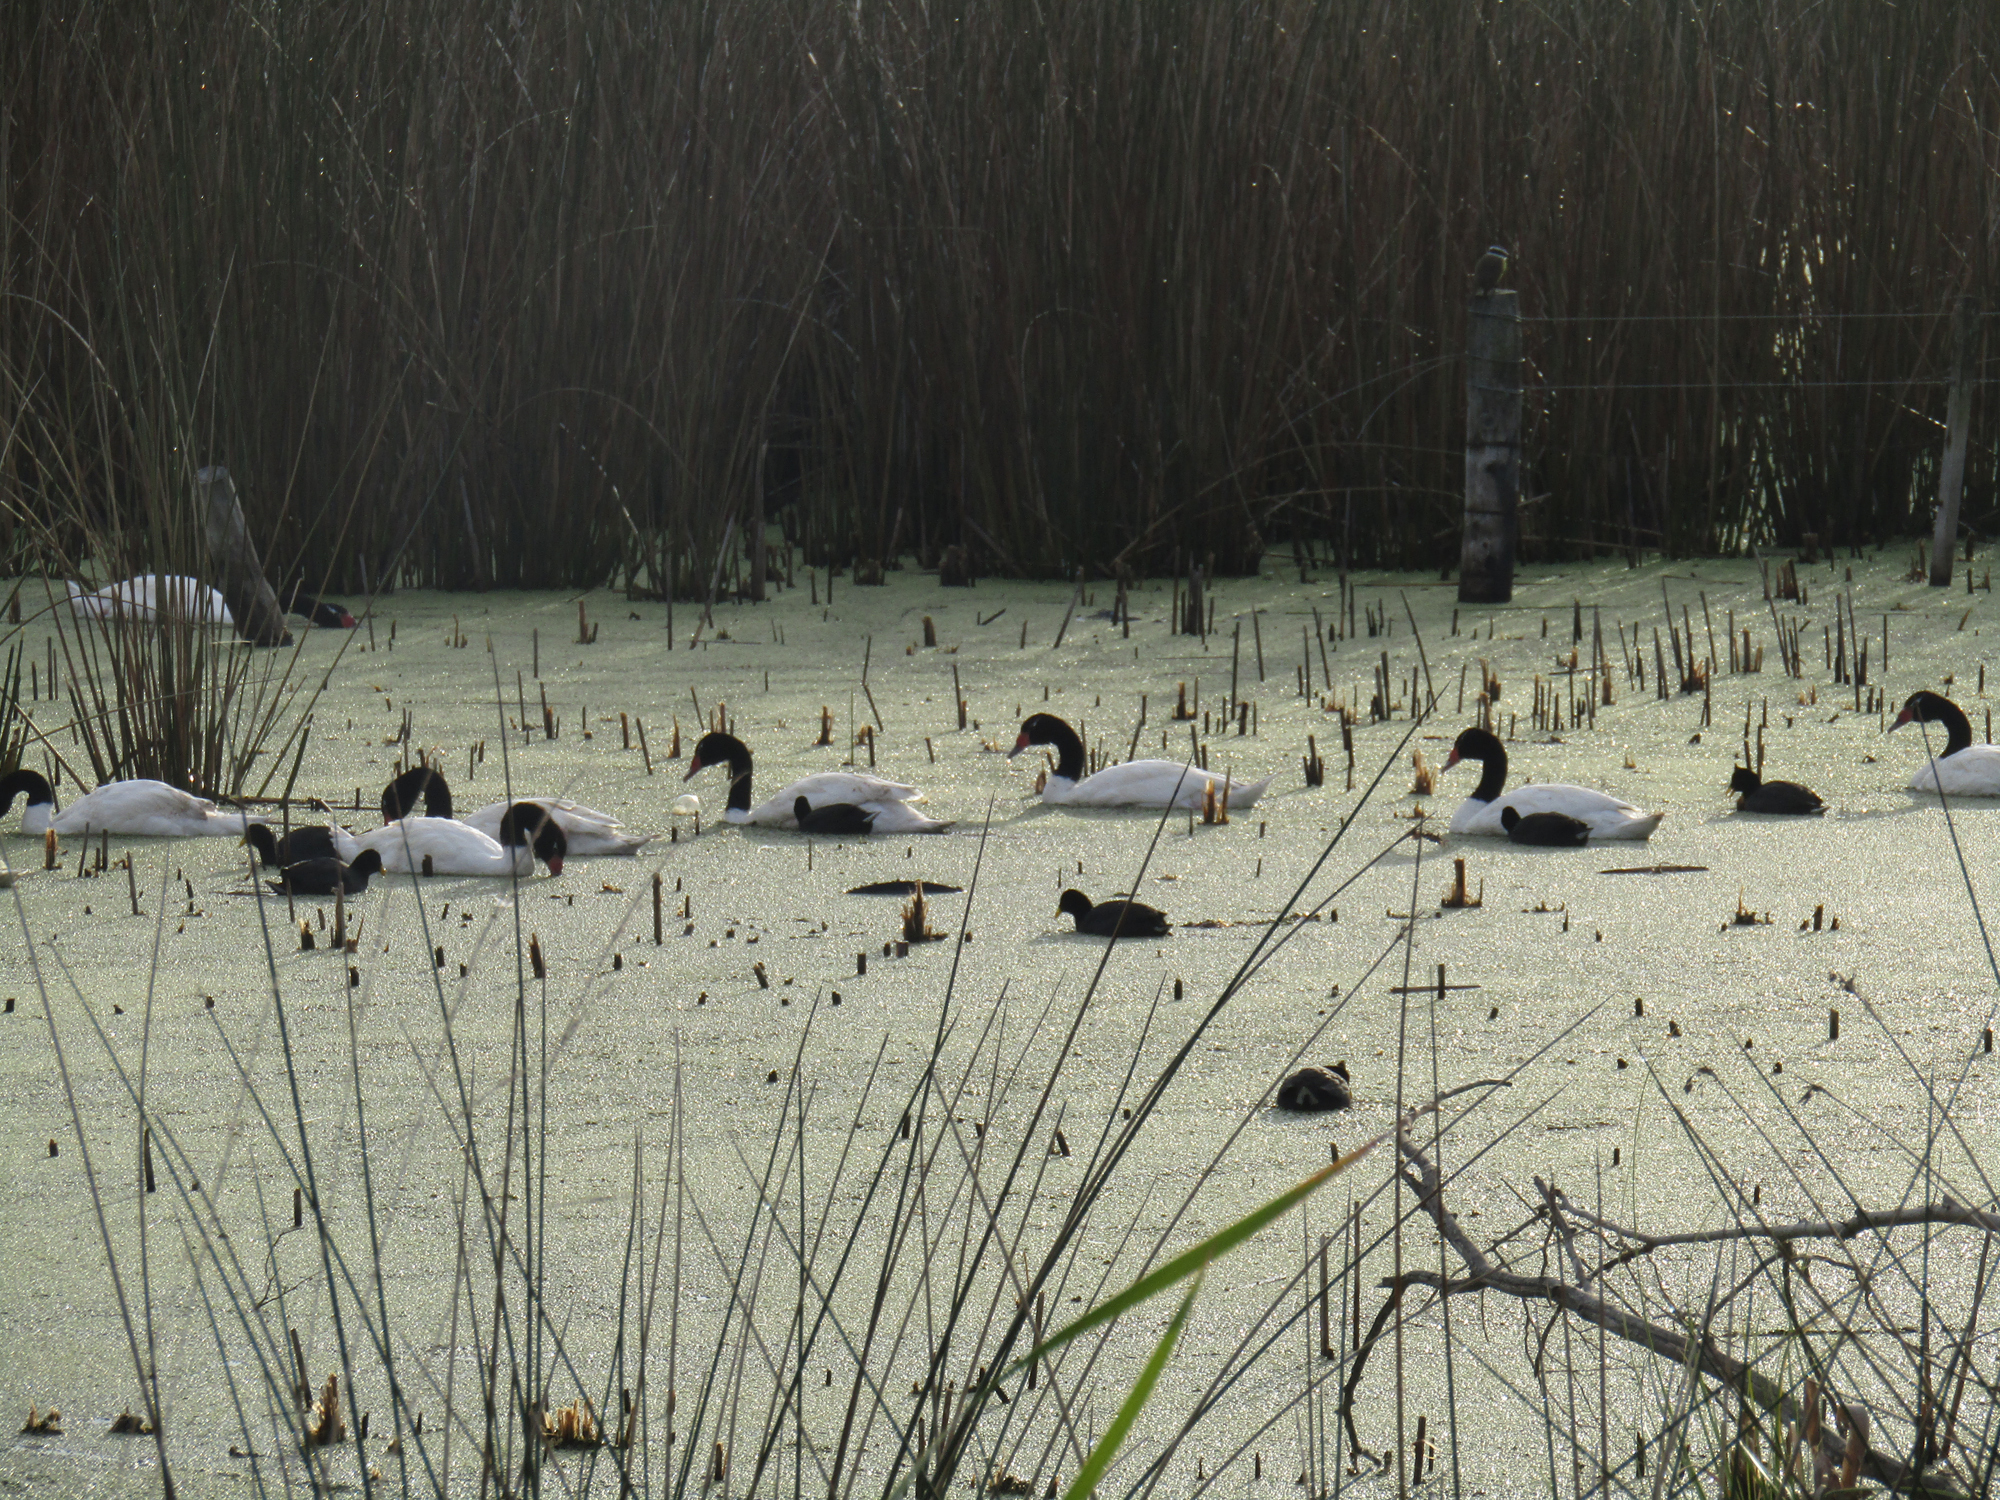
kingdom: Animalia
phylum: Chordata
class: Aves
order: Anseriformes
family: Anatidae
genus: Cygnus
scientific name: Cygnus melancoryphus
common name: Black-necked swan
